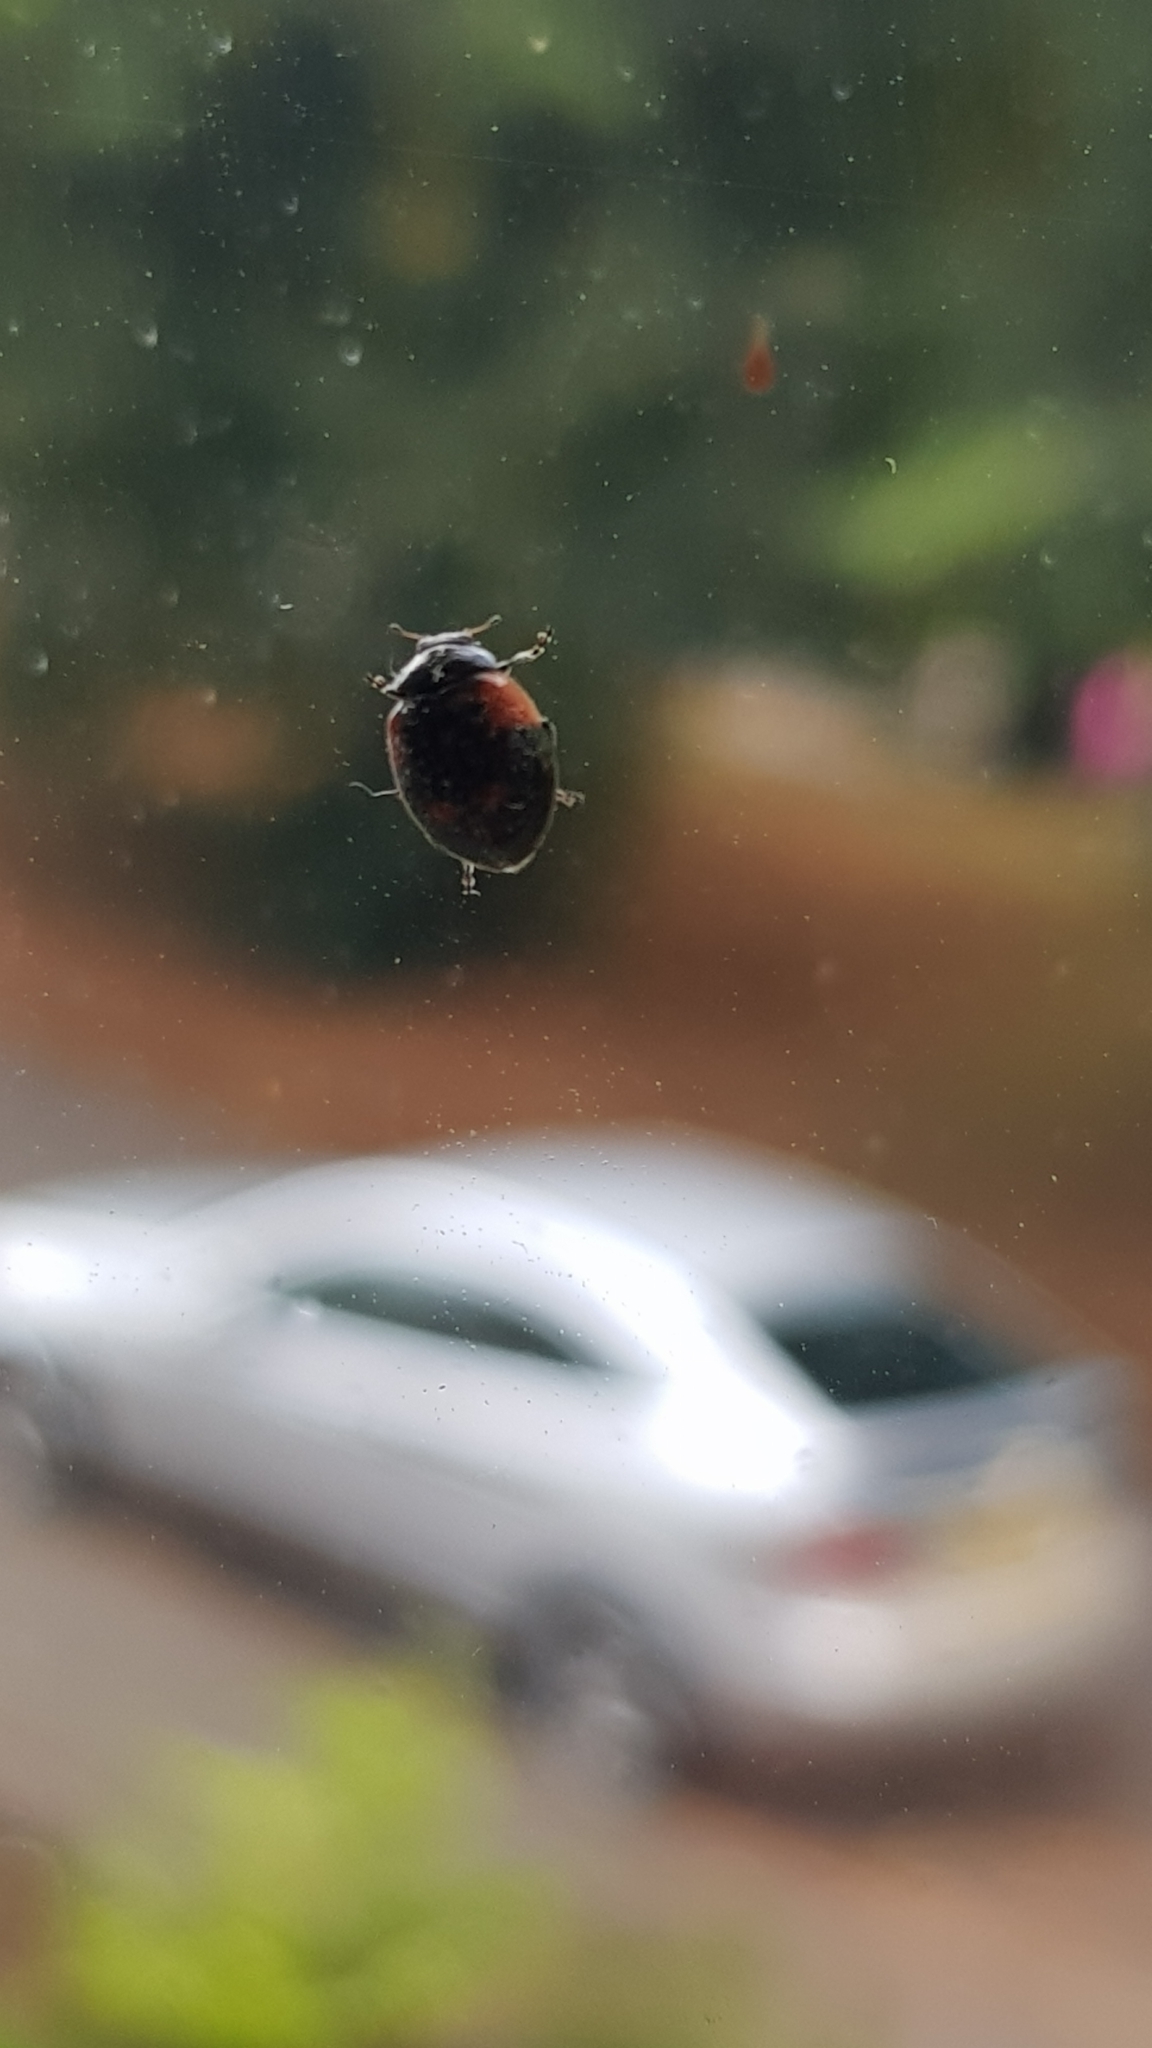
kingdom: Animalia
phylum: Arthropoda
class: Insecta
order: Coleoptera
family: Coccinellidae
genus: Adalia
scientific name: Adalia bipunctata
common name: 2-spot ladybird
